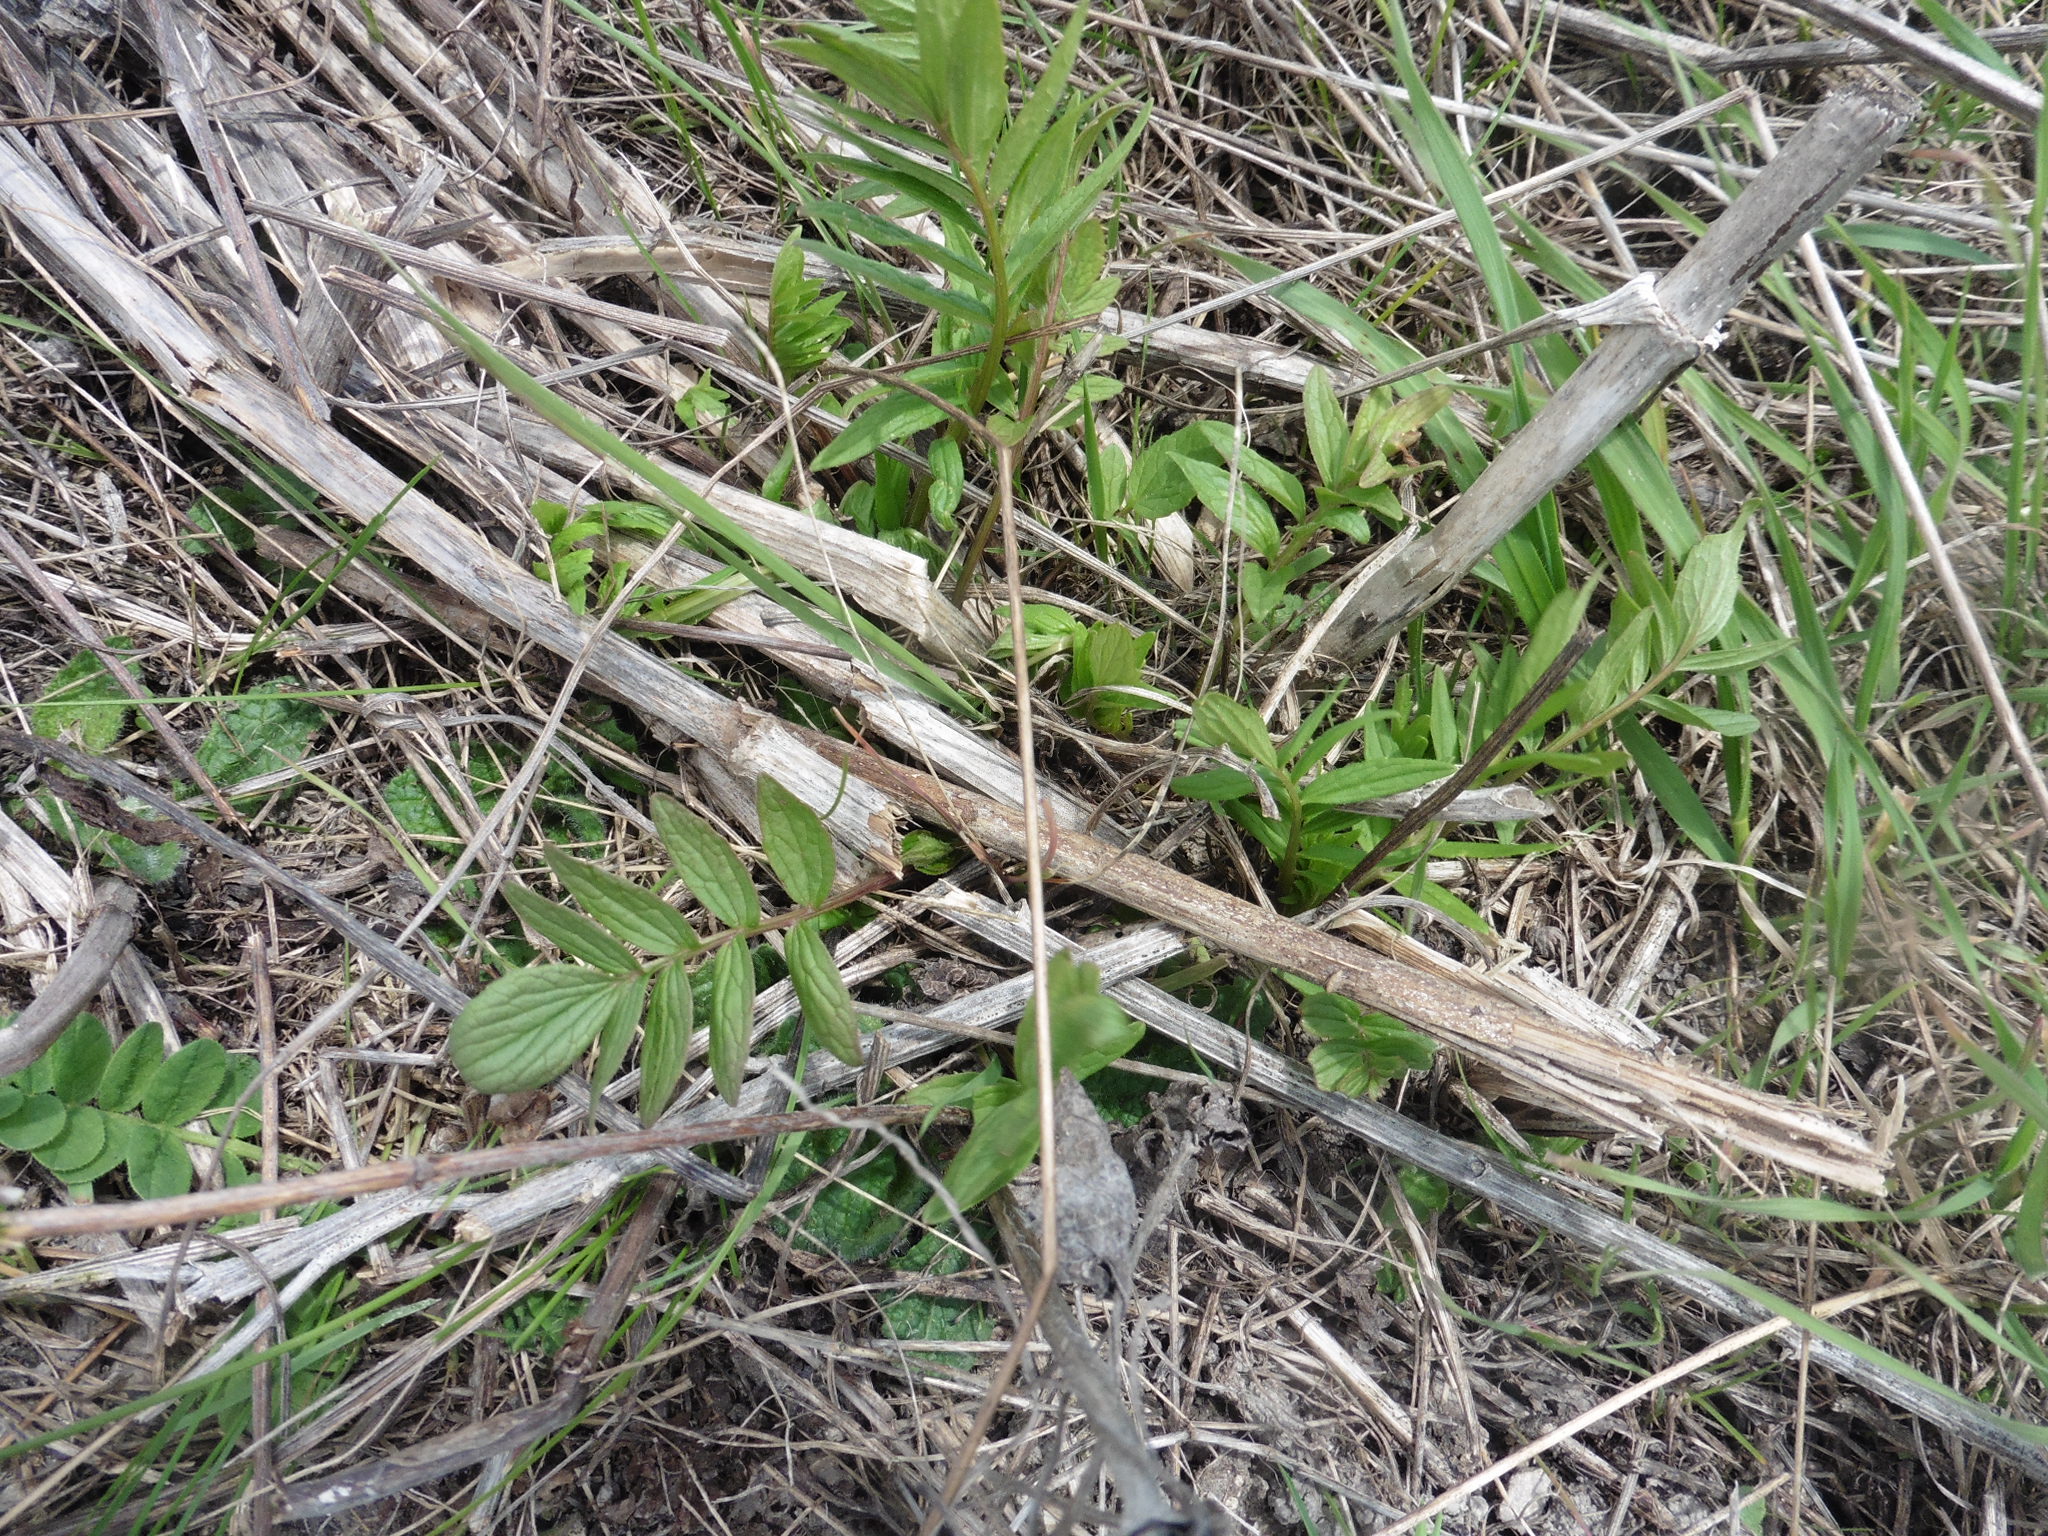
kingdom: Plantae
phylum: Tracheophyta
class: Magnoliopsida
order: Dipsacales
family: Caprifoliaceae
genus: Valeriana
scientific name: Valeriana officinalis
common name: Common valerian
